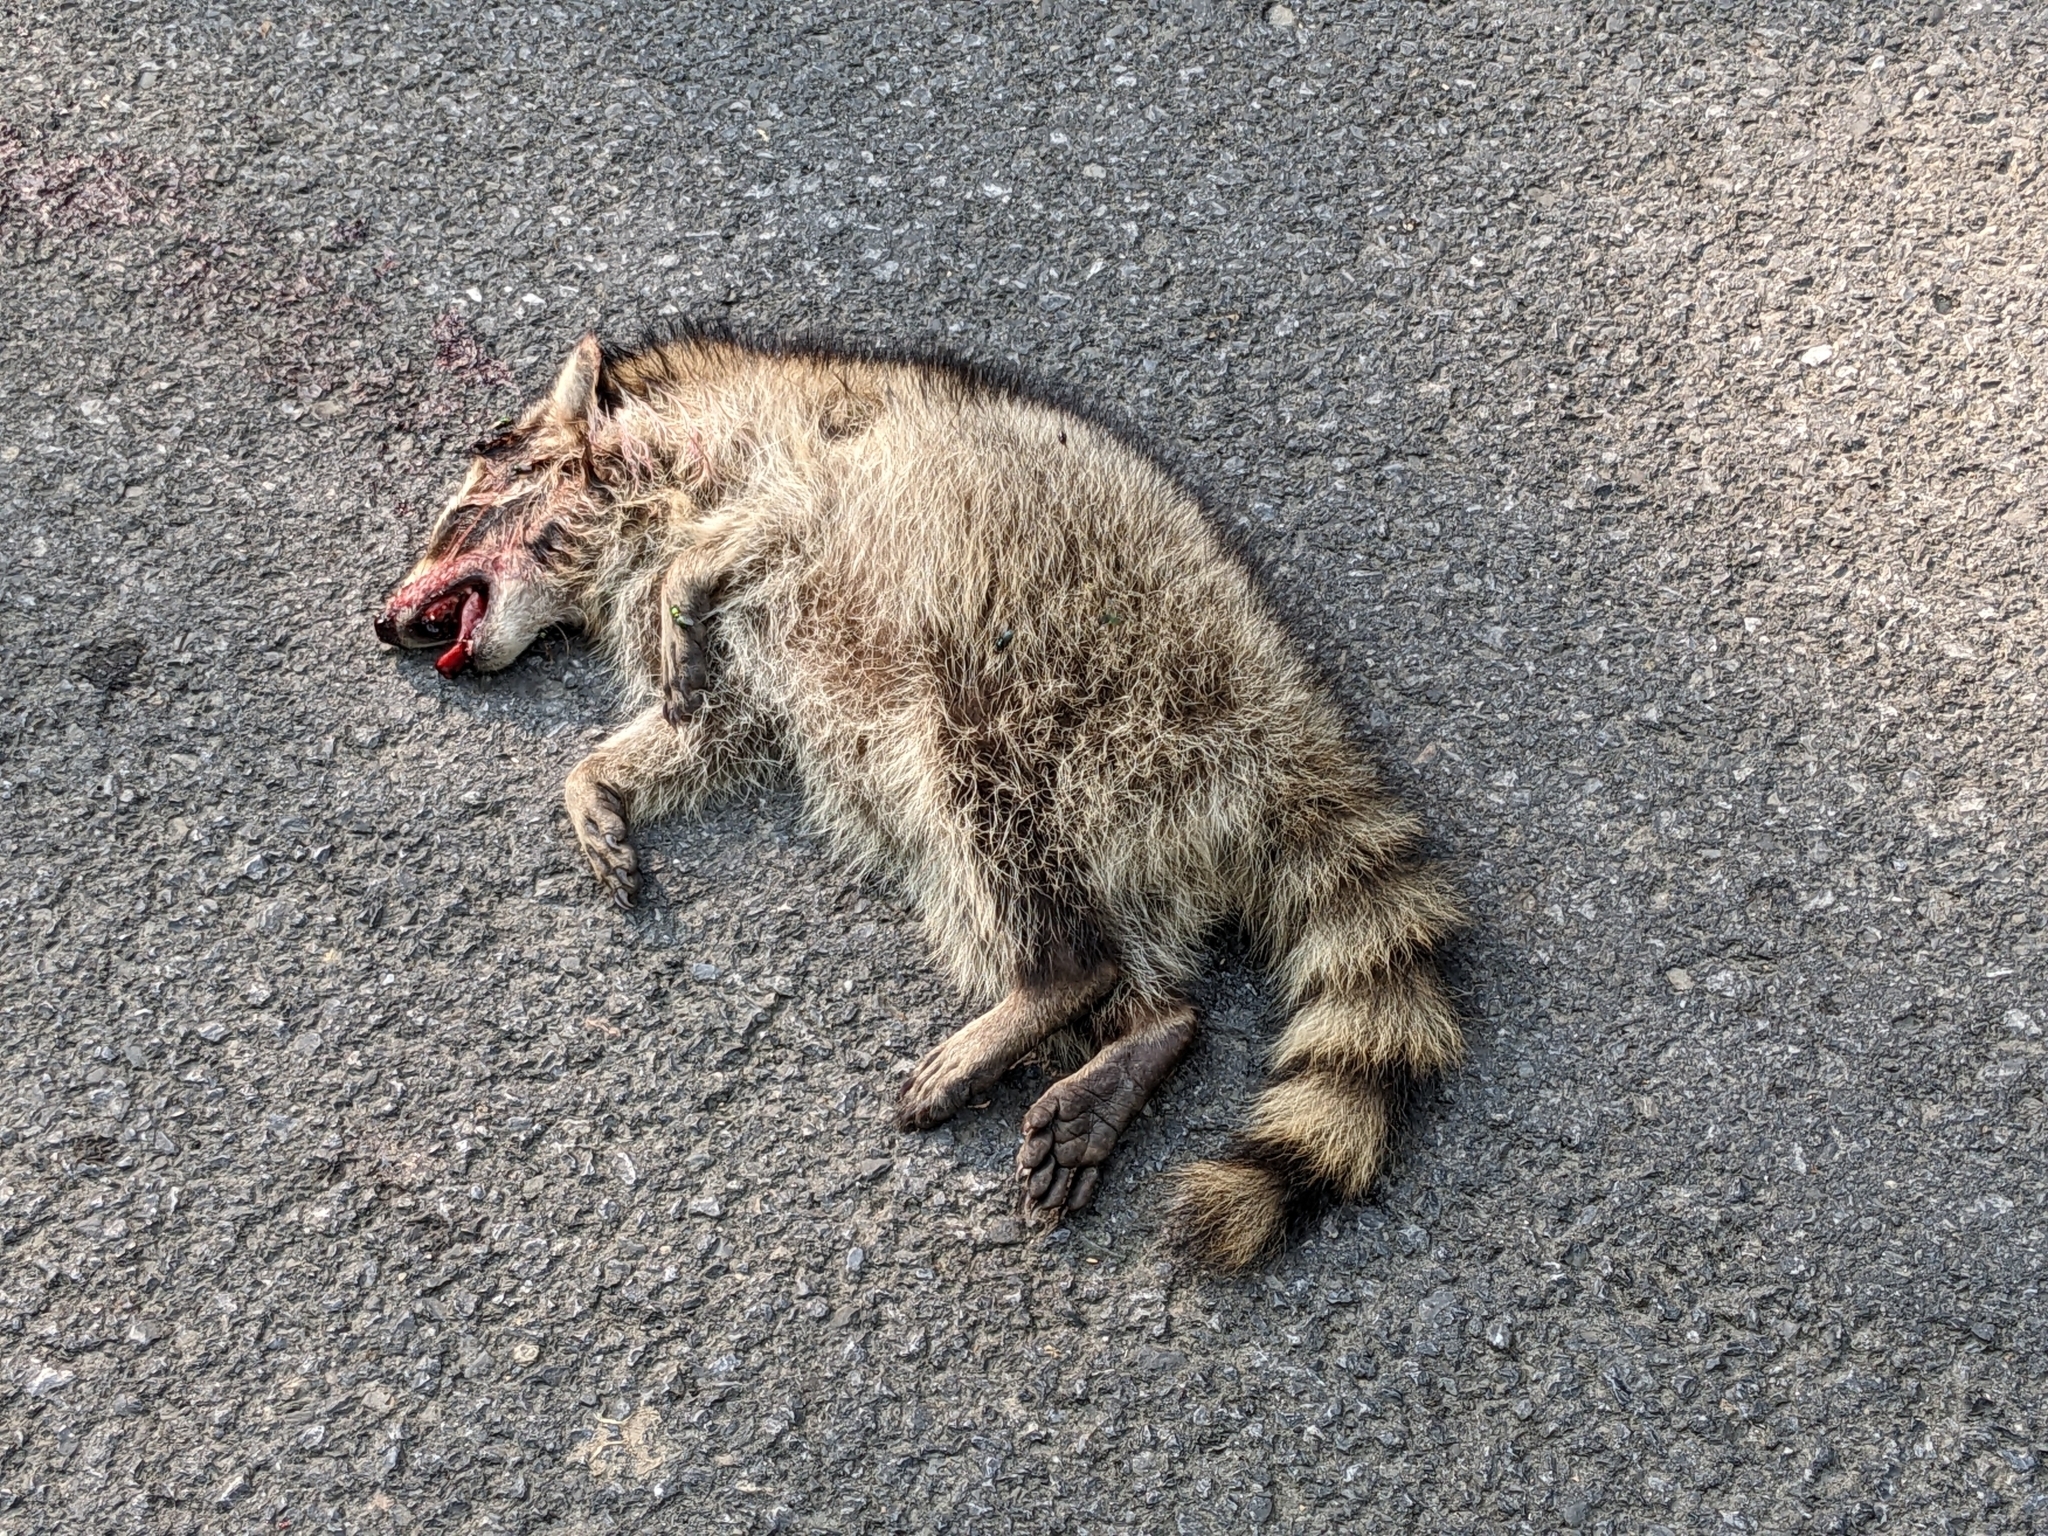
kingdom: Animalia
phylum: Chordata
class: Mammalia
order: Carnivora
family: Procyonidae
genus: Procyon
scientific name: Procyon lotor
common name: Raccoon
